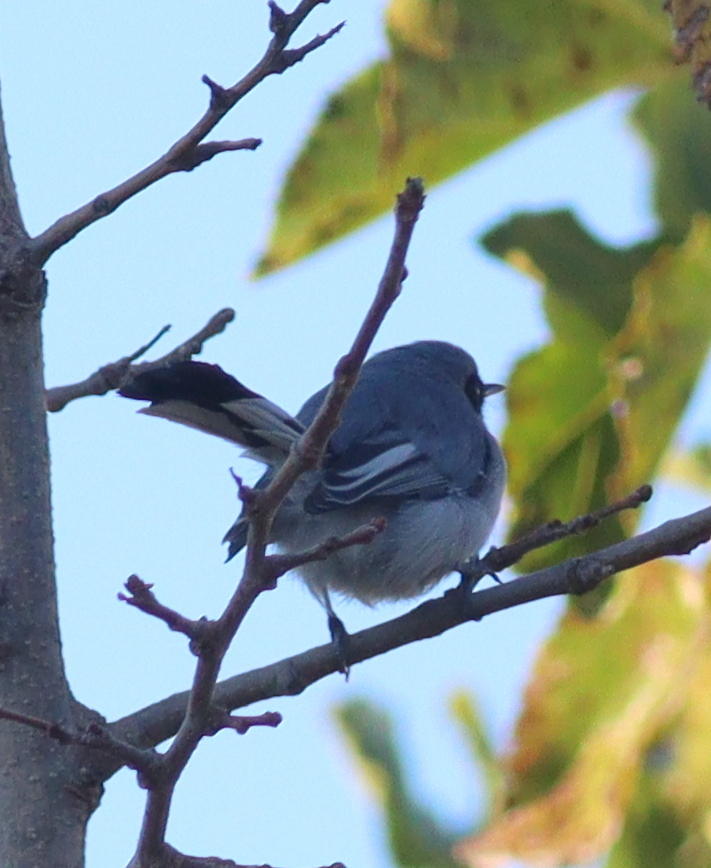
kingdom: Animalia
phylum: Chordata
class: Aves
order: Passeriformes
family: Polioptilidae
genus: Polioptila
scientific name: Polioptila dumicola
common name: Masked gnatcatcher
